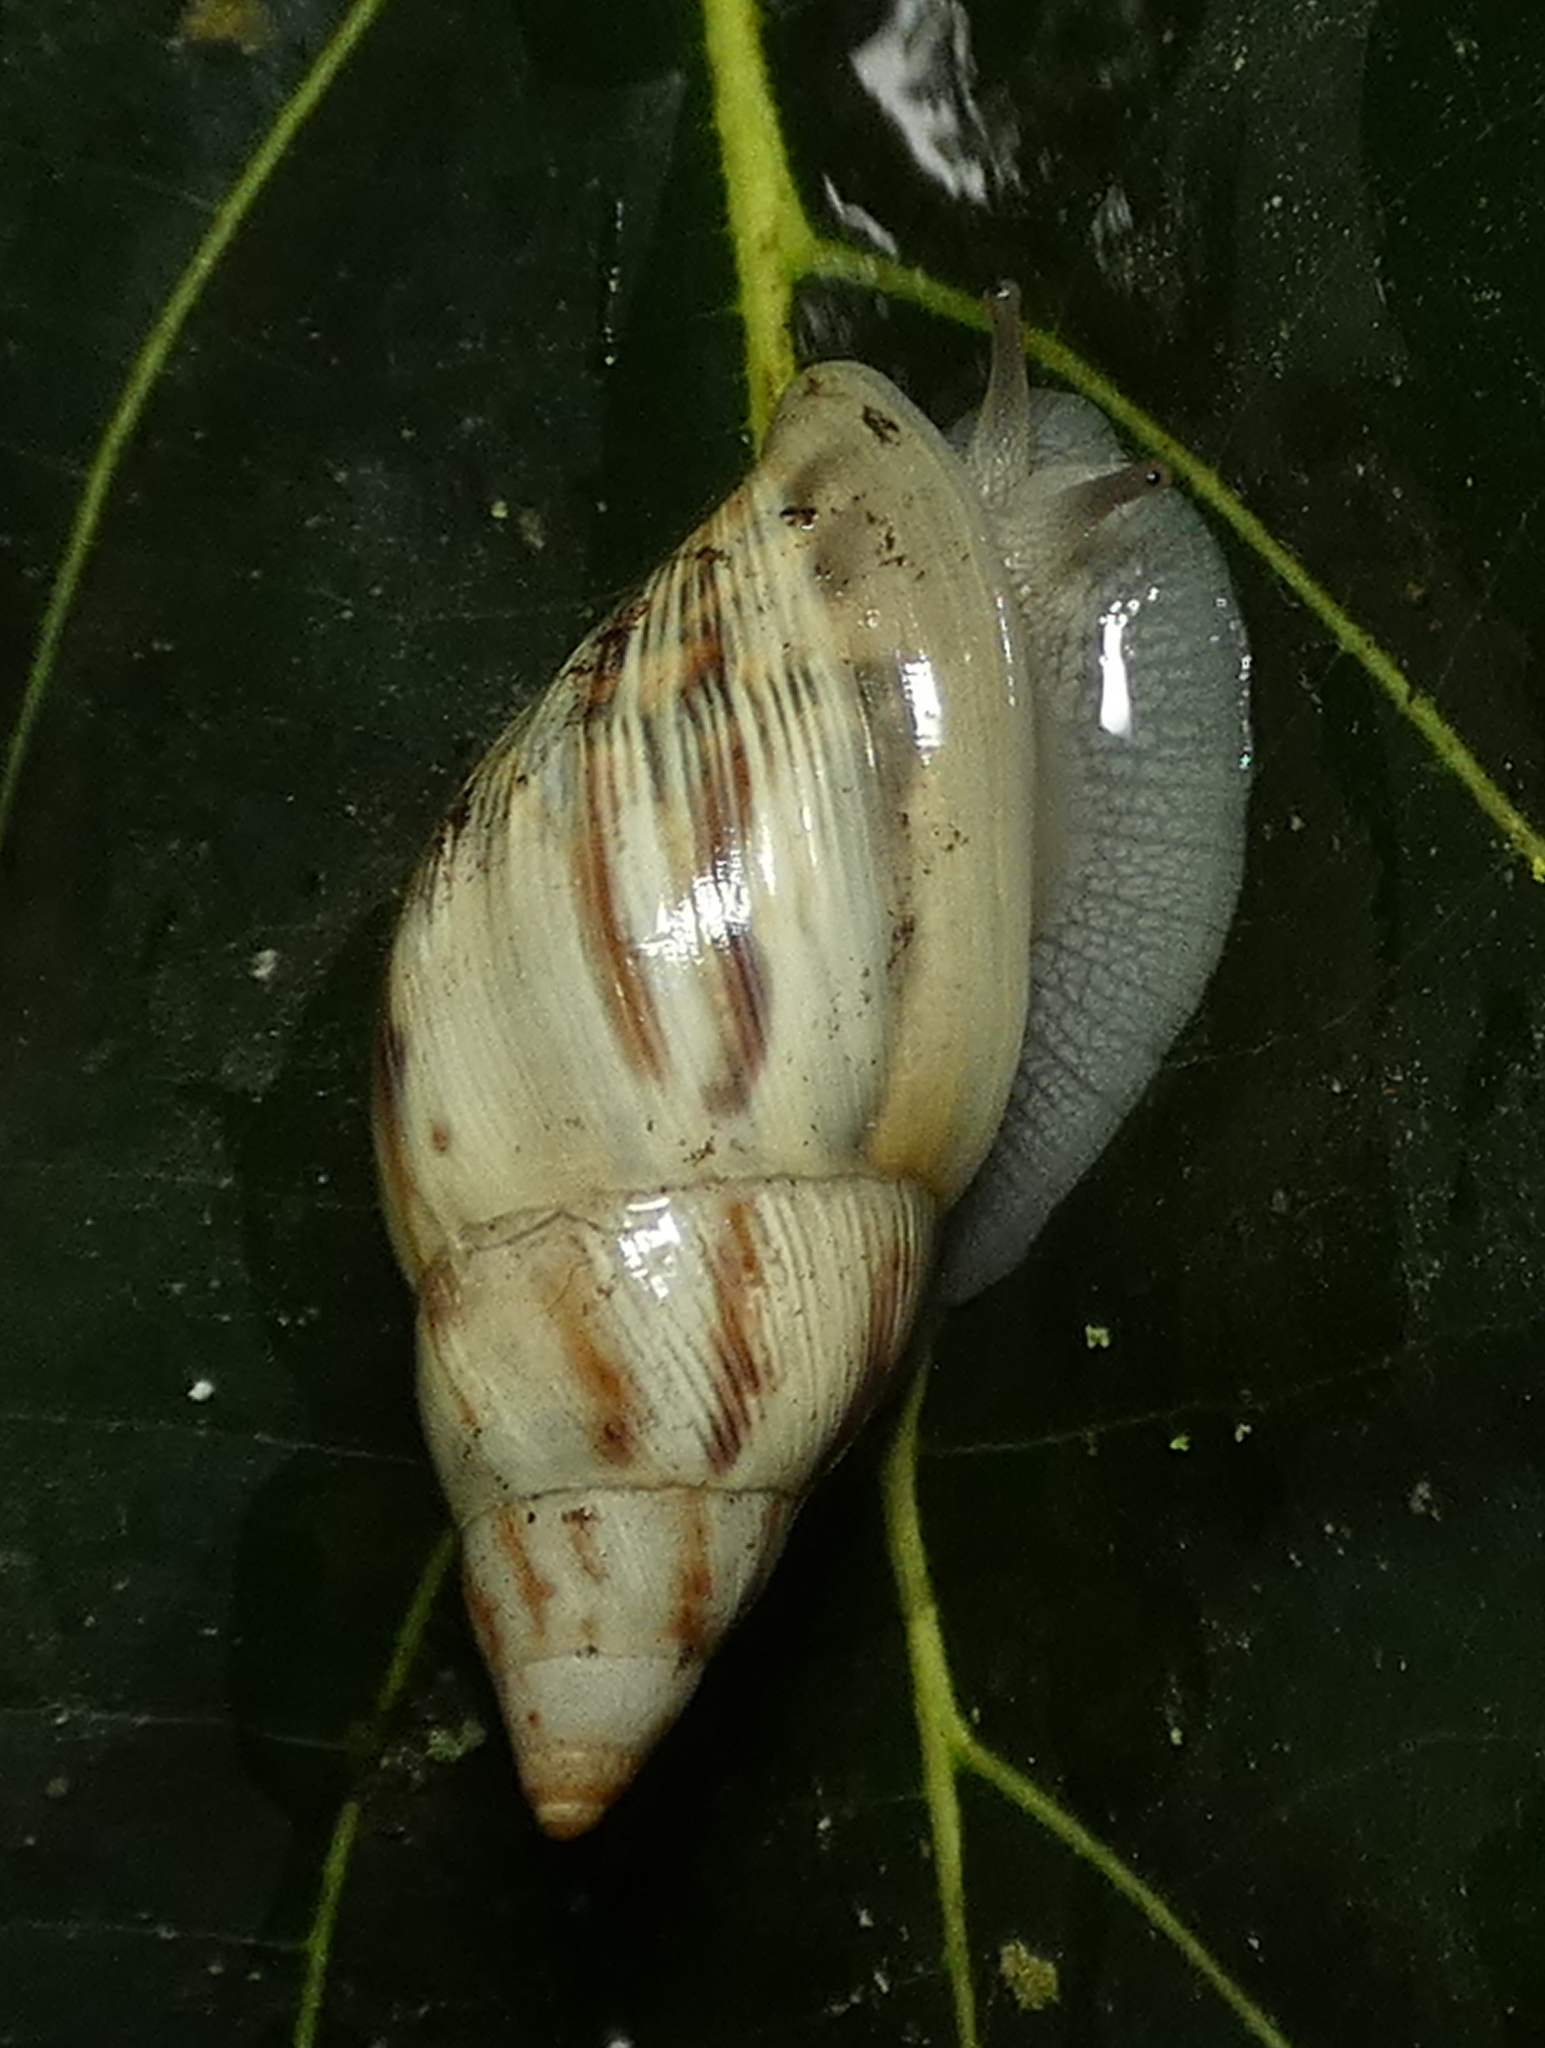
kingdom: Animalia
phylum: Mollusca
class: Gastropoda
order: Stylommatophora
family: Bulimulidae
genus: Drymaeus
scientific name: Drymaeus papyraceus
